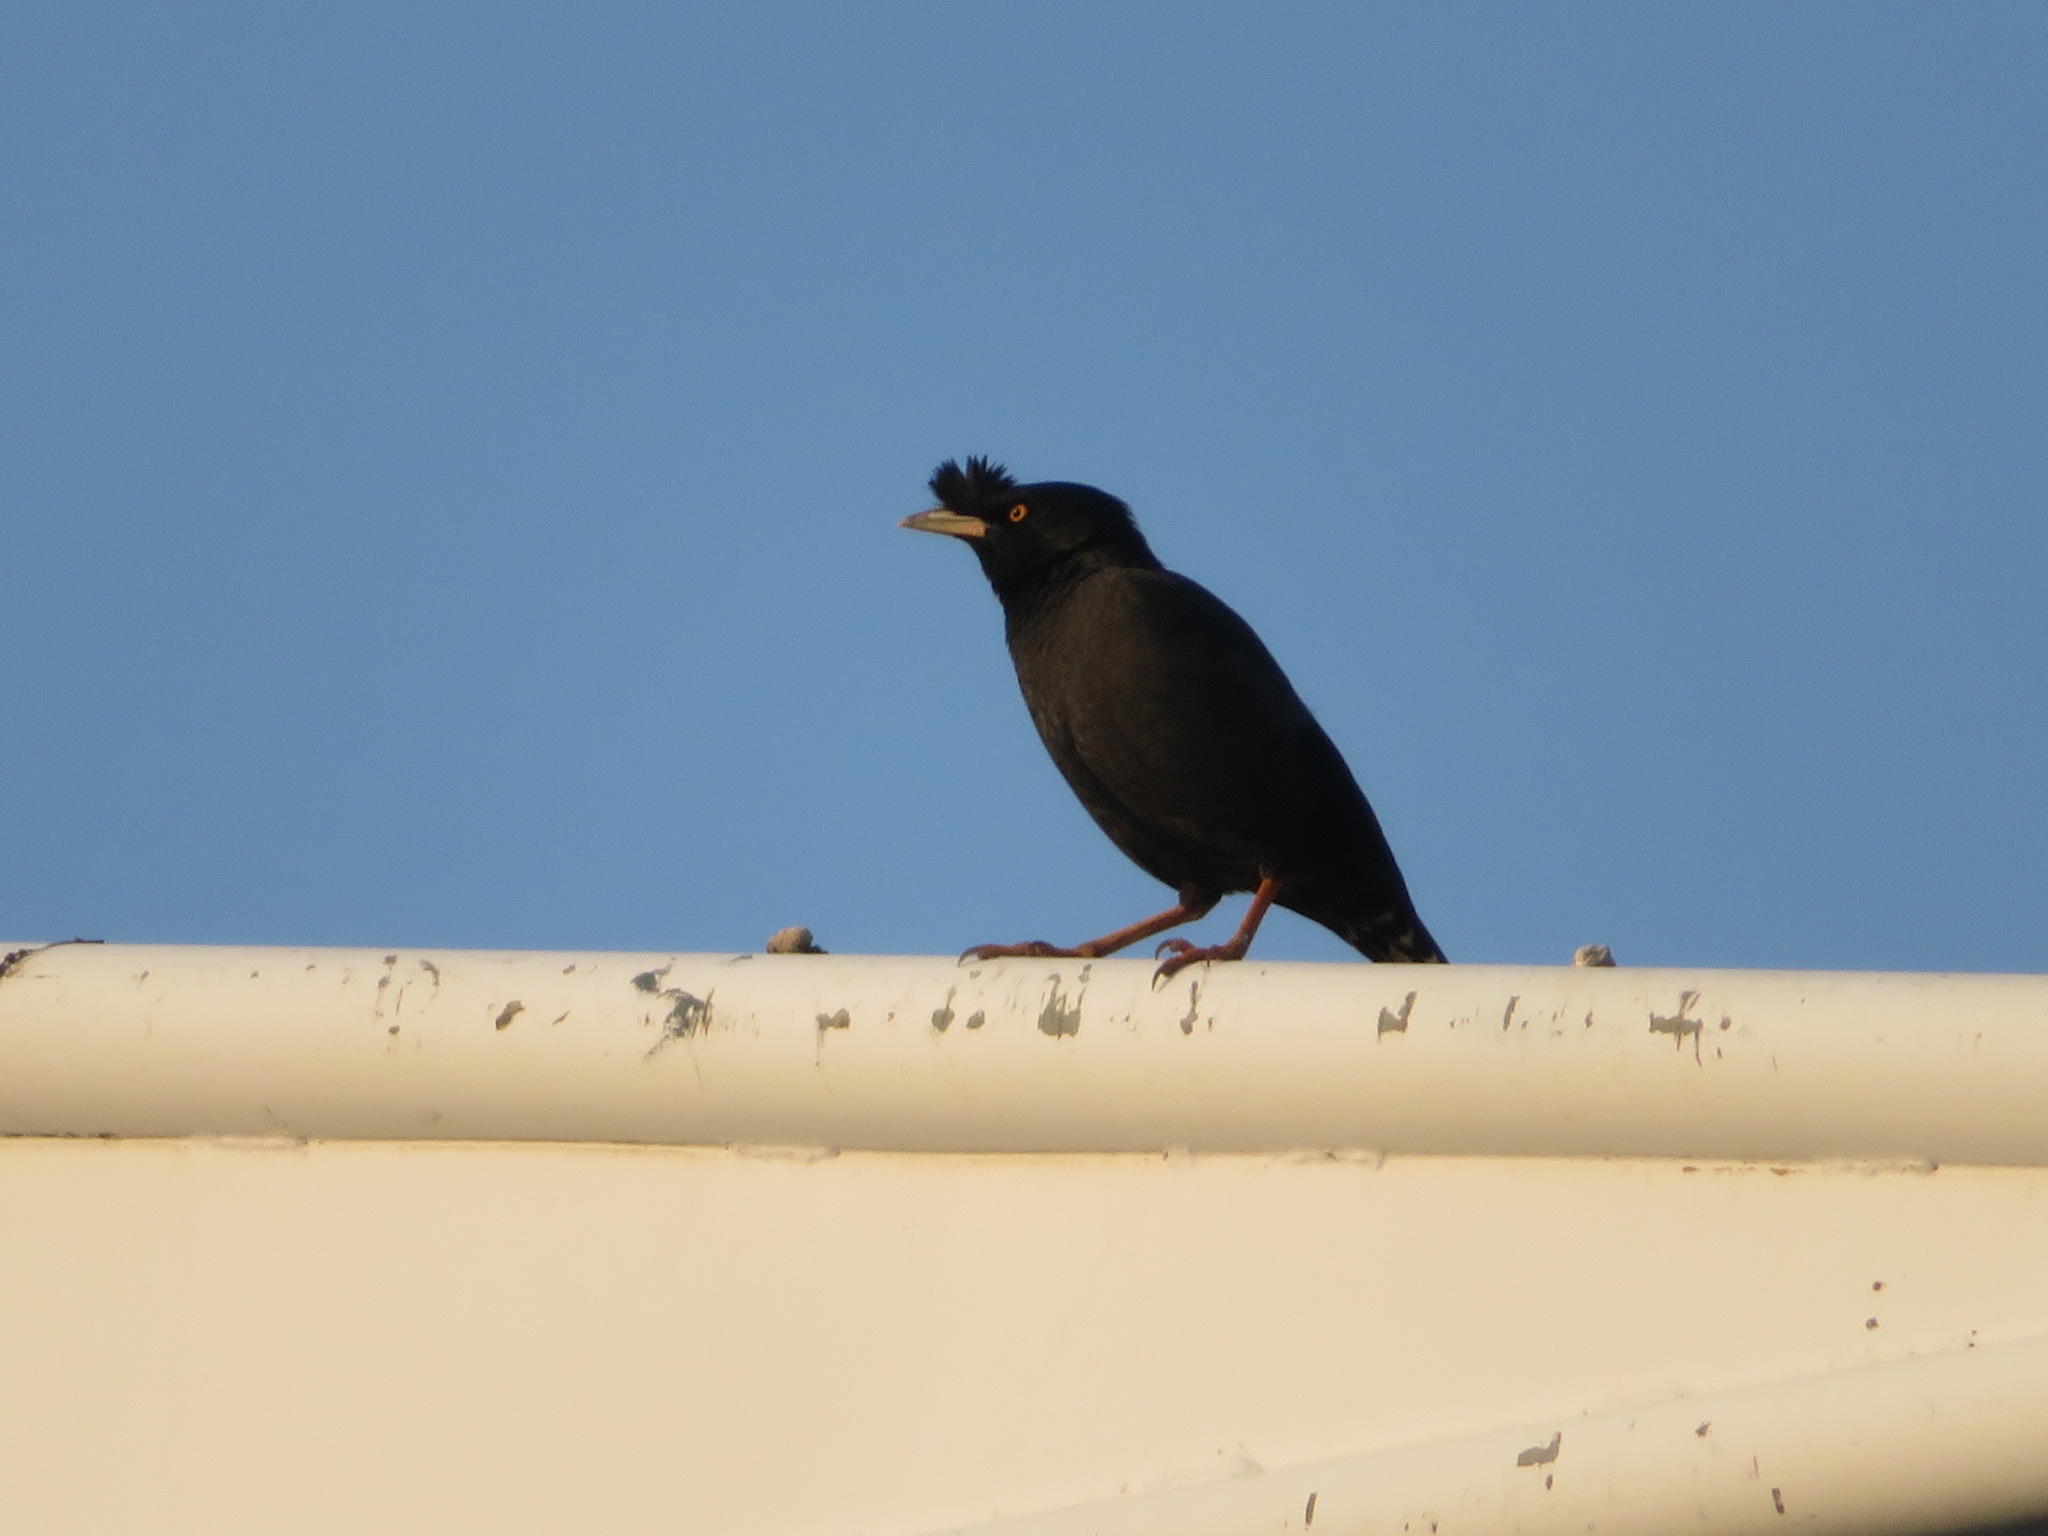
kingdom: Animalia
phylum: Chordata
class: Aves
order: Passeriformes
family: Sturnidae
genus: Acridotheres
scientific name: Acridotheres cristatellus
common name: Crested myna
